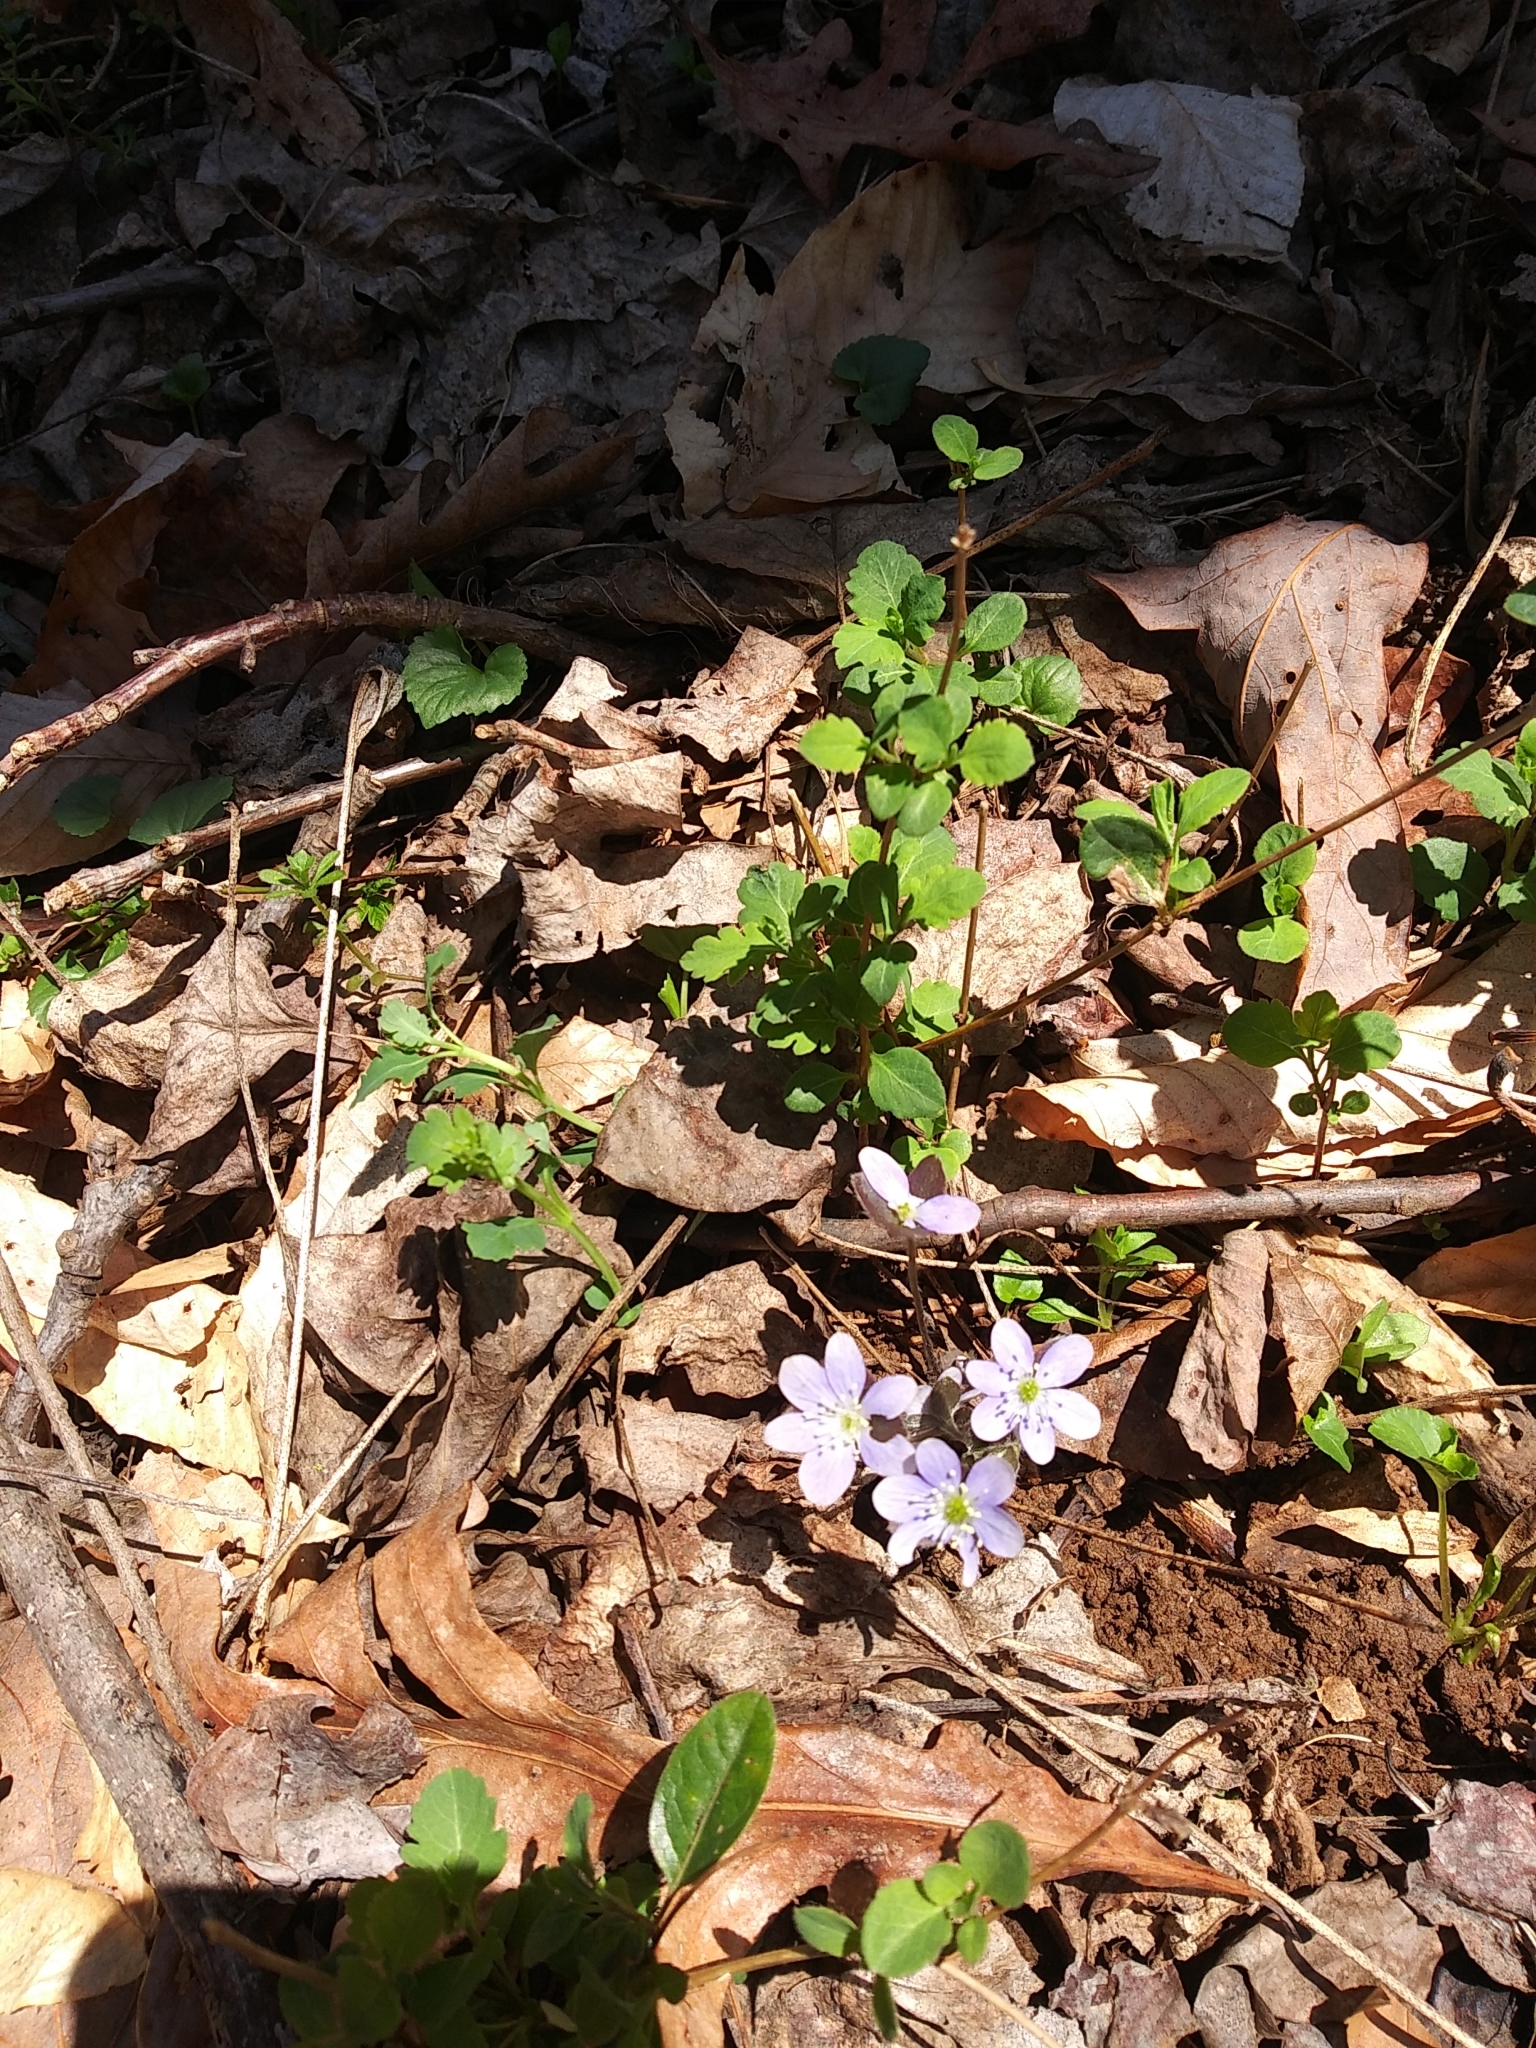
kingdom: Plantae
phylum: Tracheophyta
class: Magnoliopsida
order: Ranunculales
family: Ranunculaceae
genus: Hepatica
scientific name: Hepatica americana
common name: American hepatica
